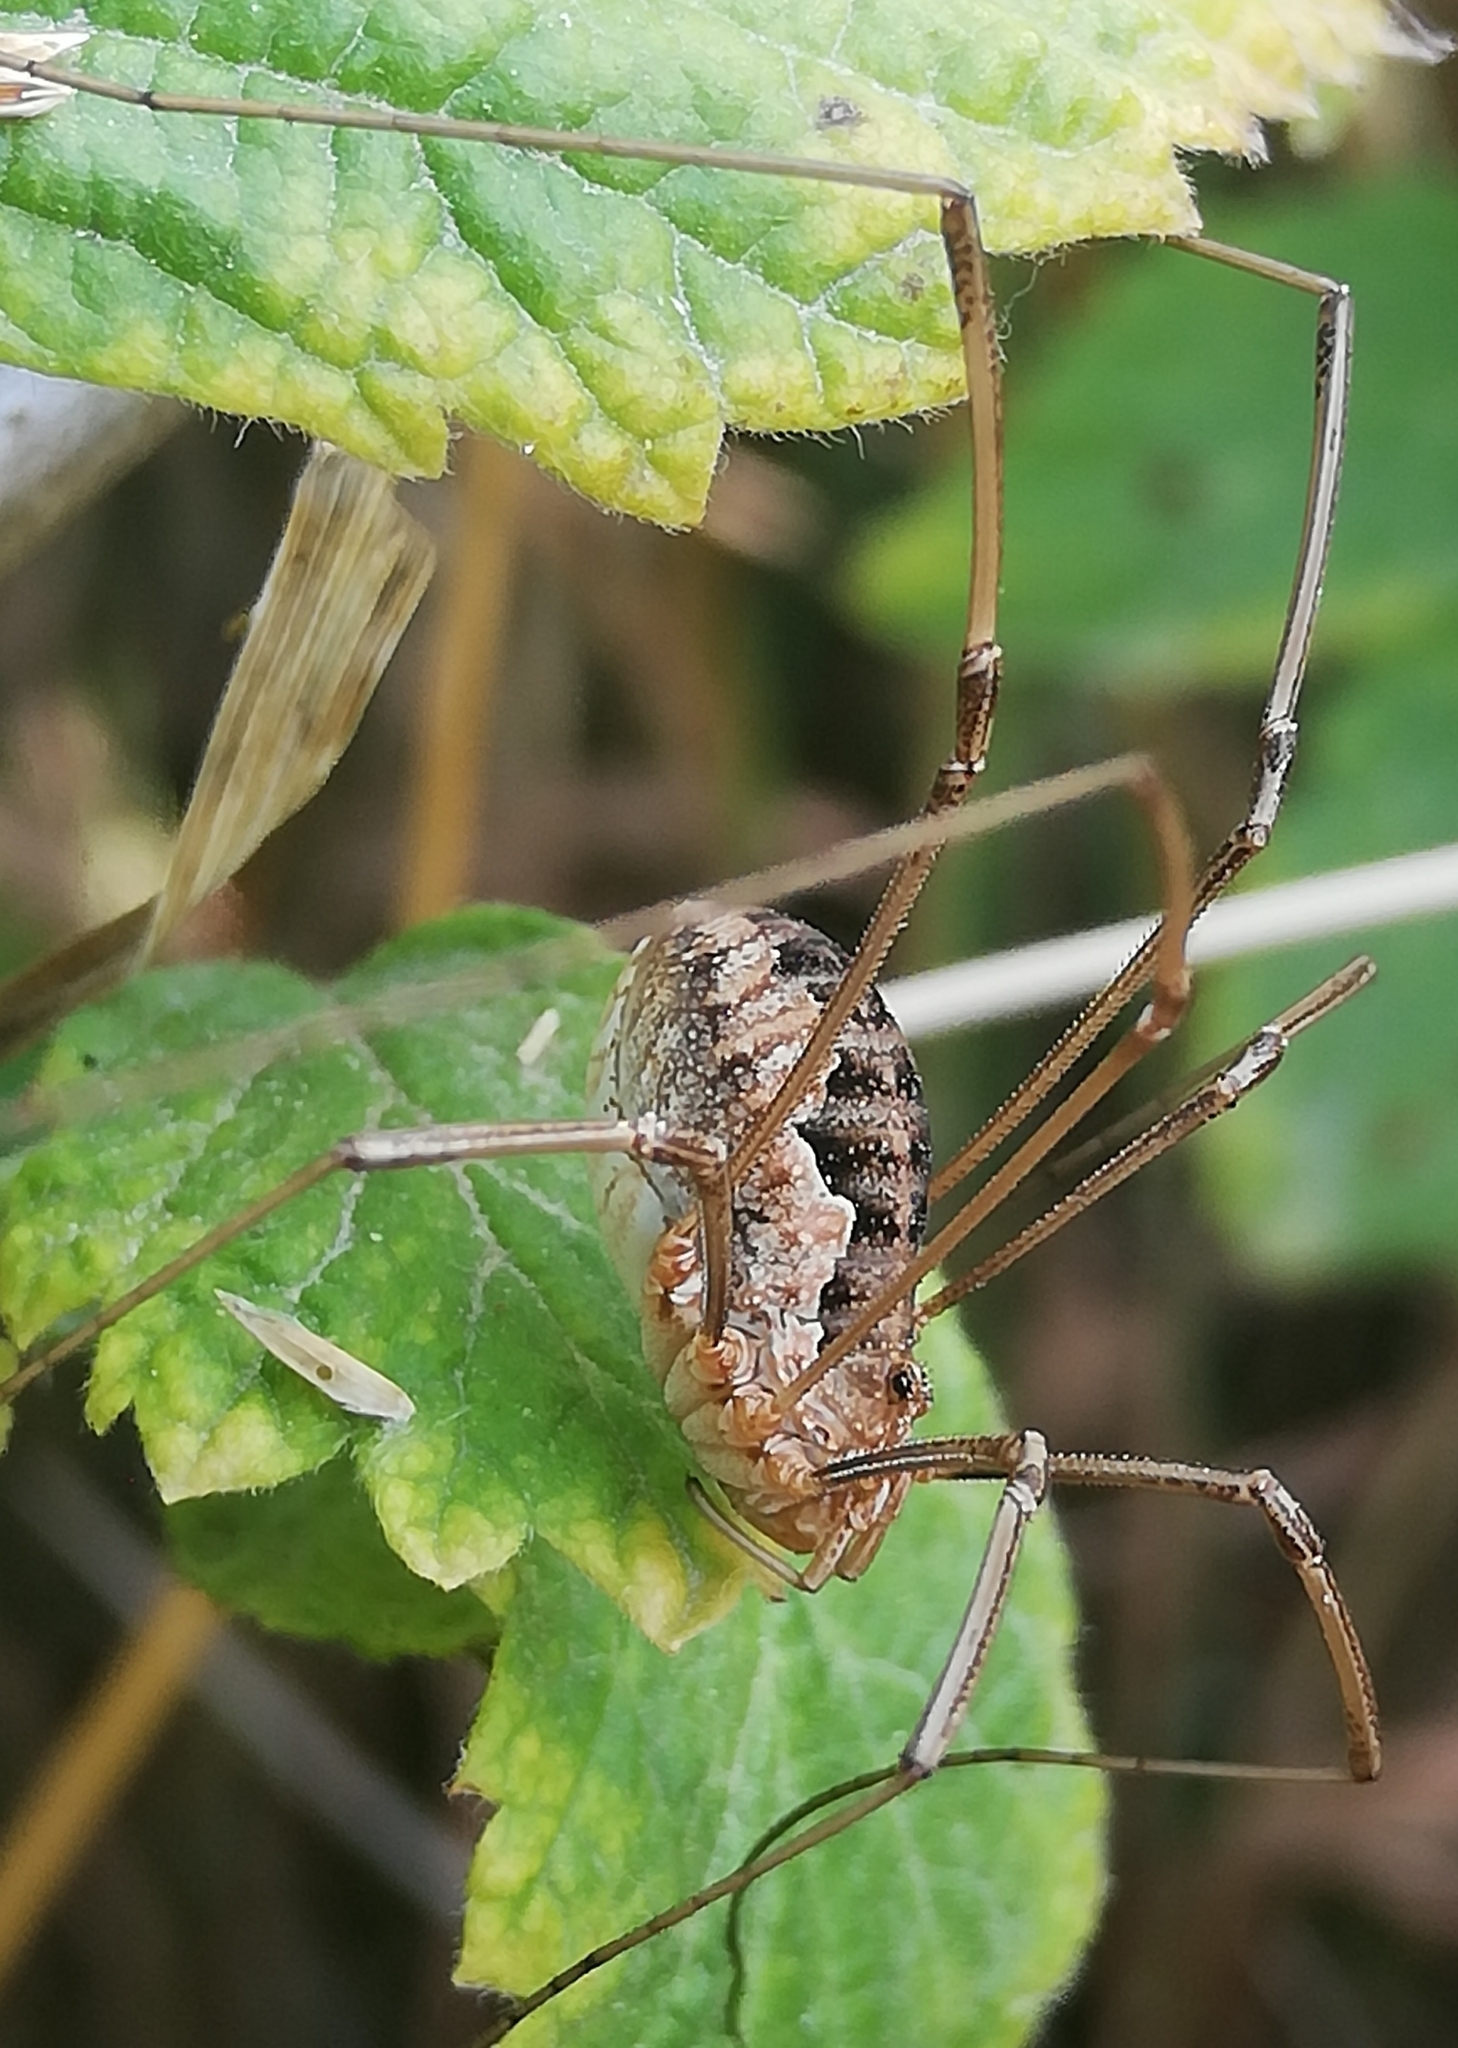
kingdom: Animalia
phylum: Arthropoda
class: Arachnida
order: Opiliones
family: Phalangiidae
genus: Phalangium
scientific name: Phalangium opilio
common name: Daddy longleg
